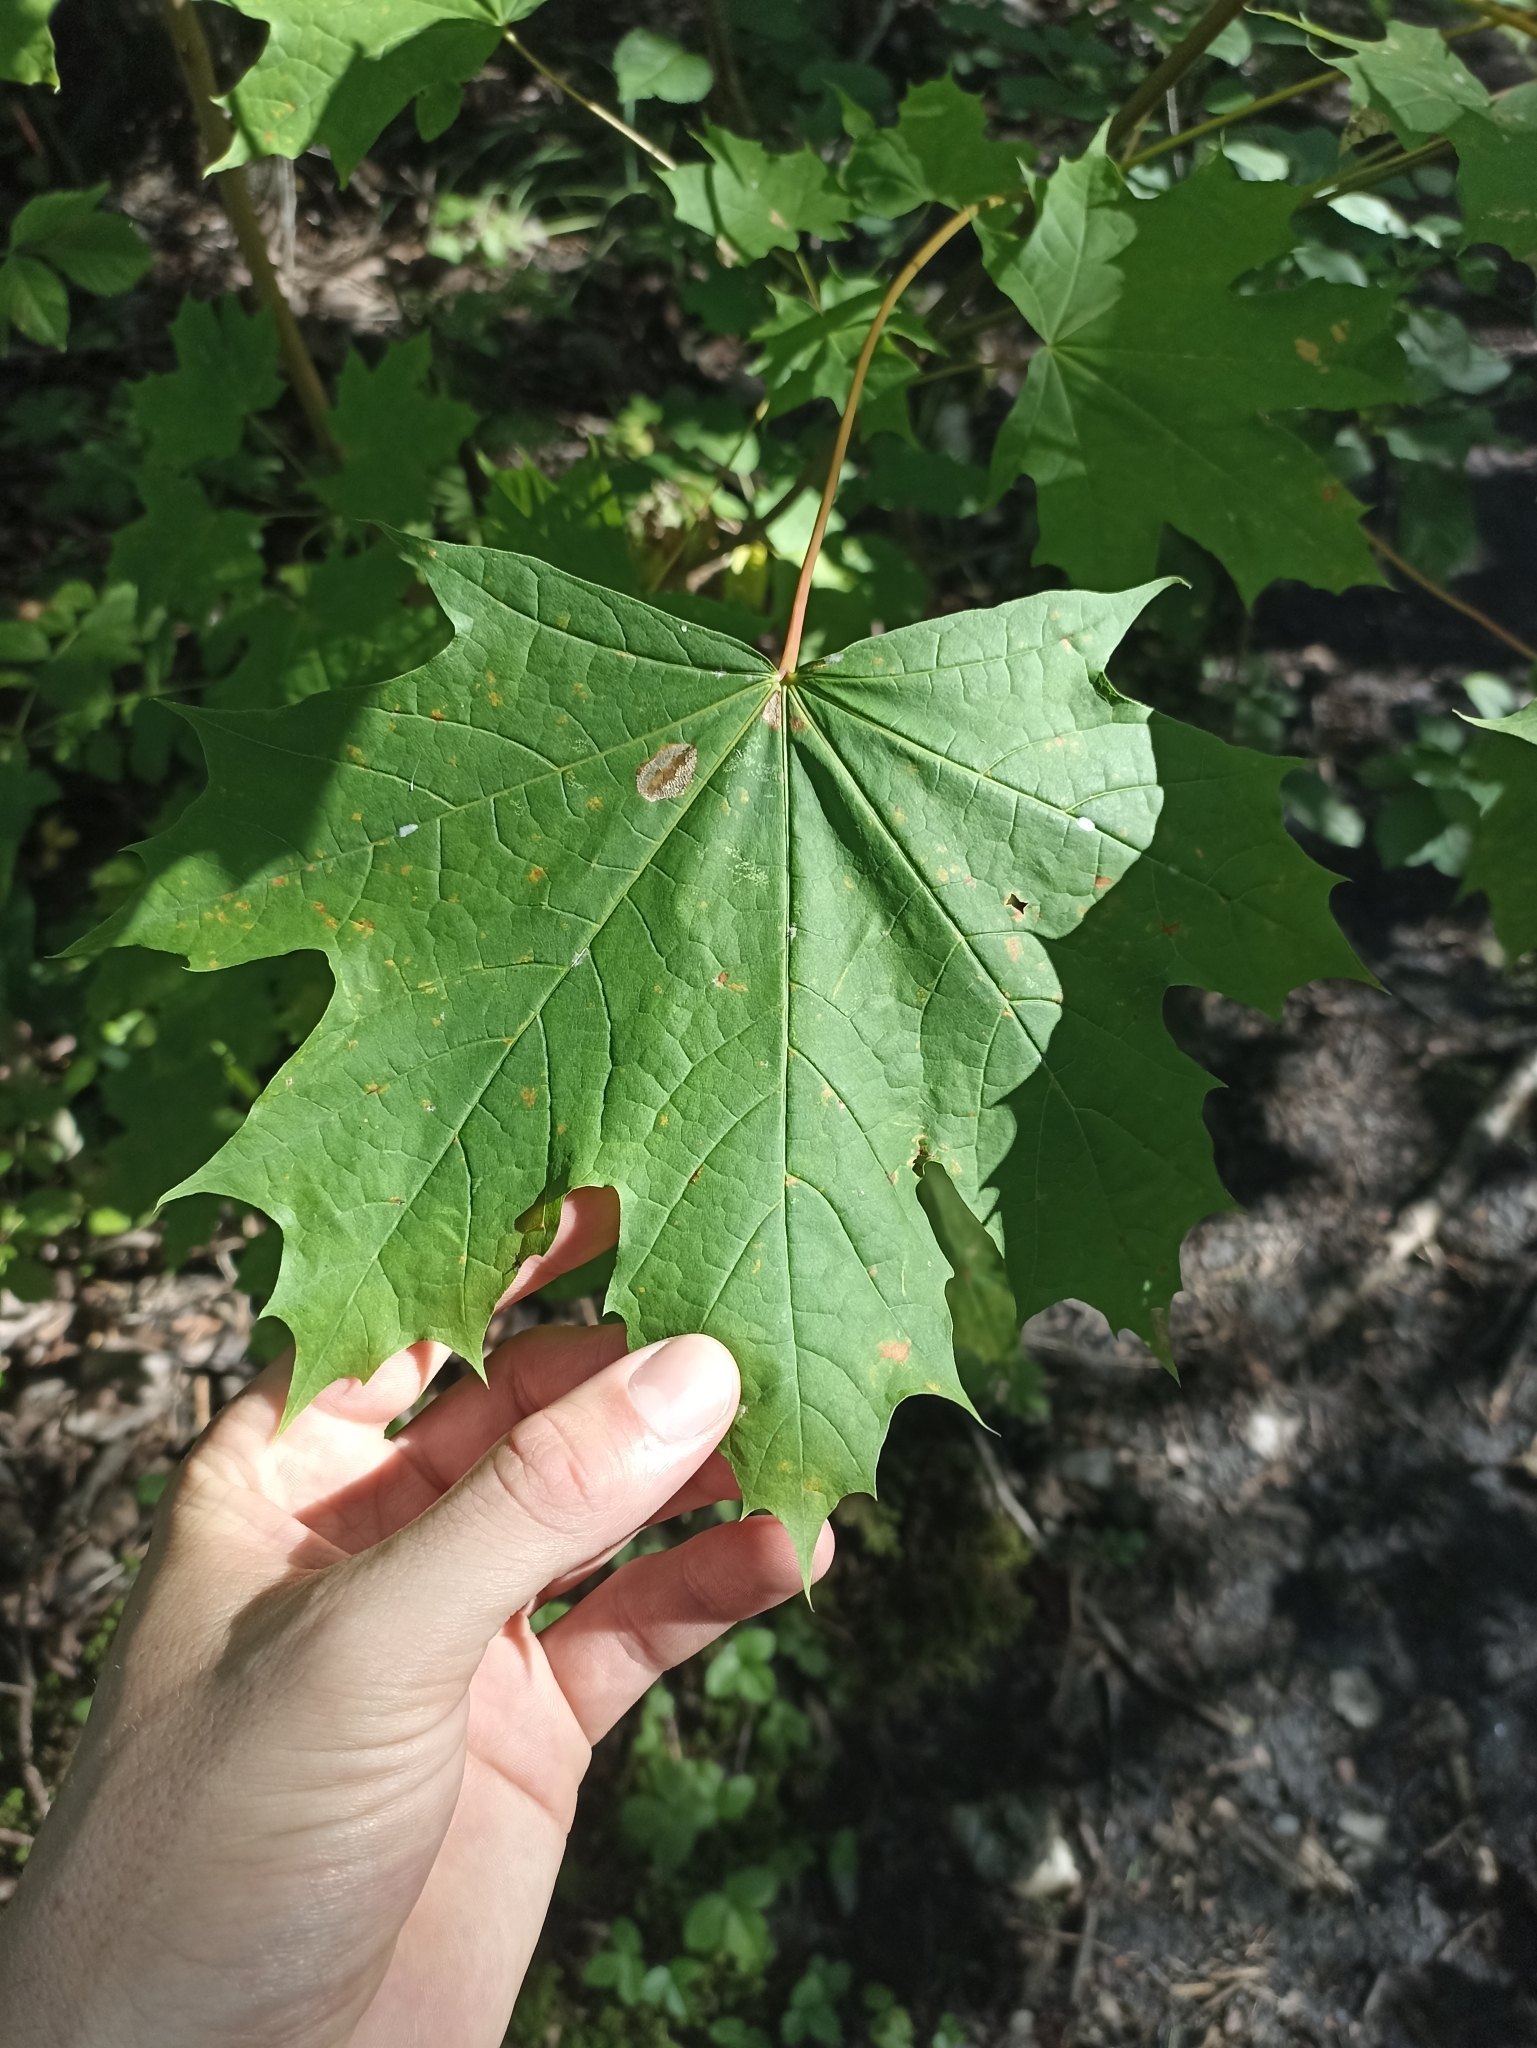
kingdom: Plantae
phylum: Tracheophyta
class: Magnoliopsida
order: Sapindales
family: Sapindaceae
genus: Acer
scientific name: Acer platanoides
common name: Norway maple
